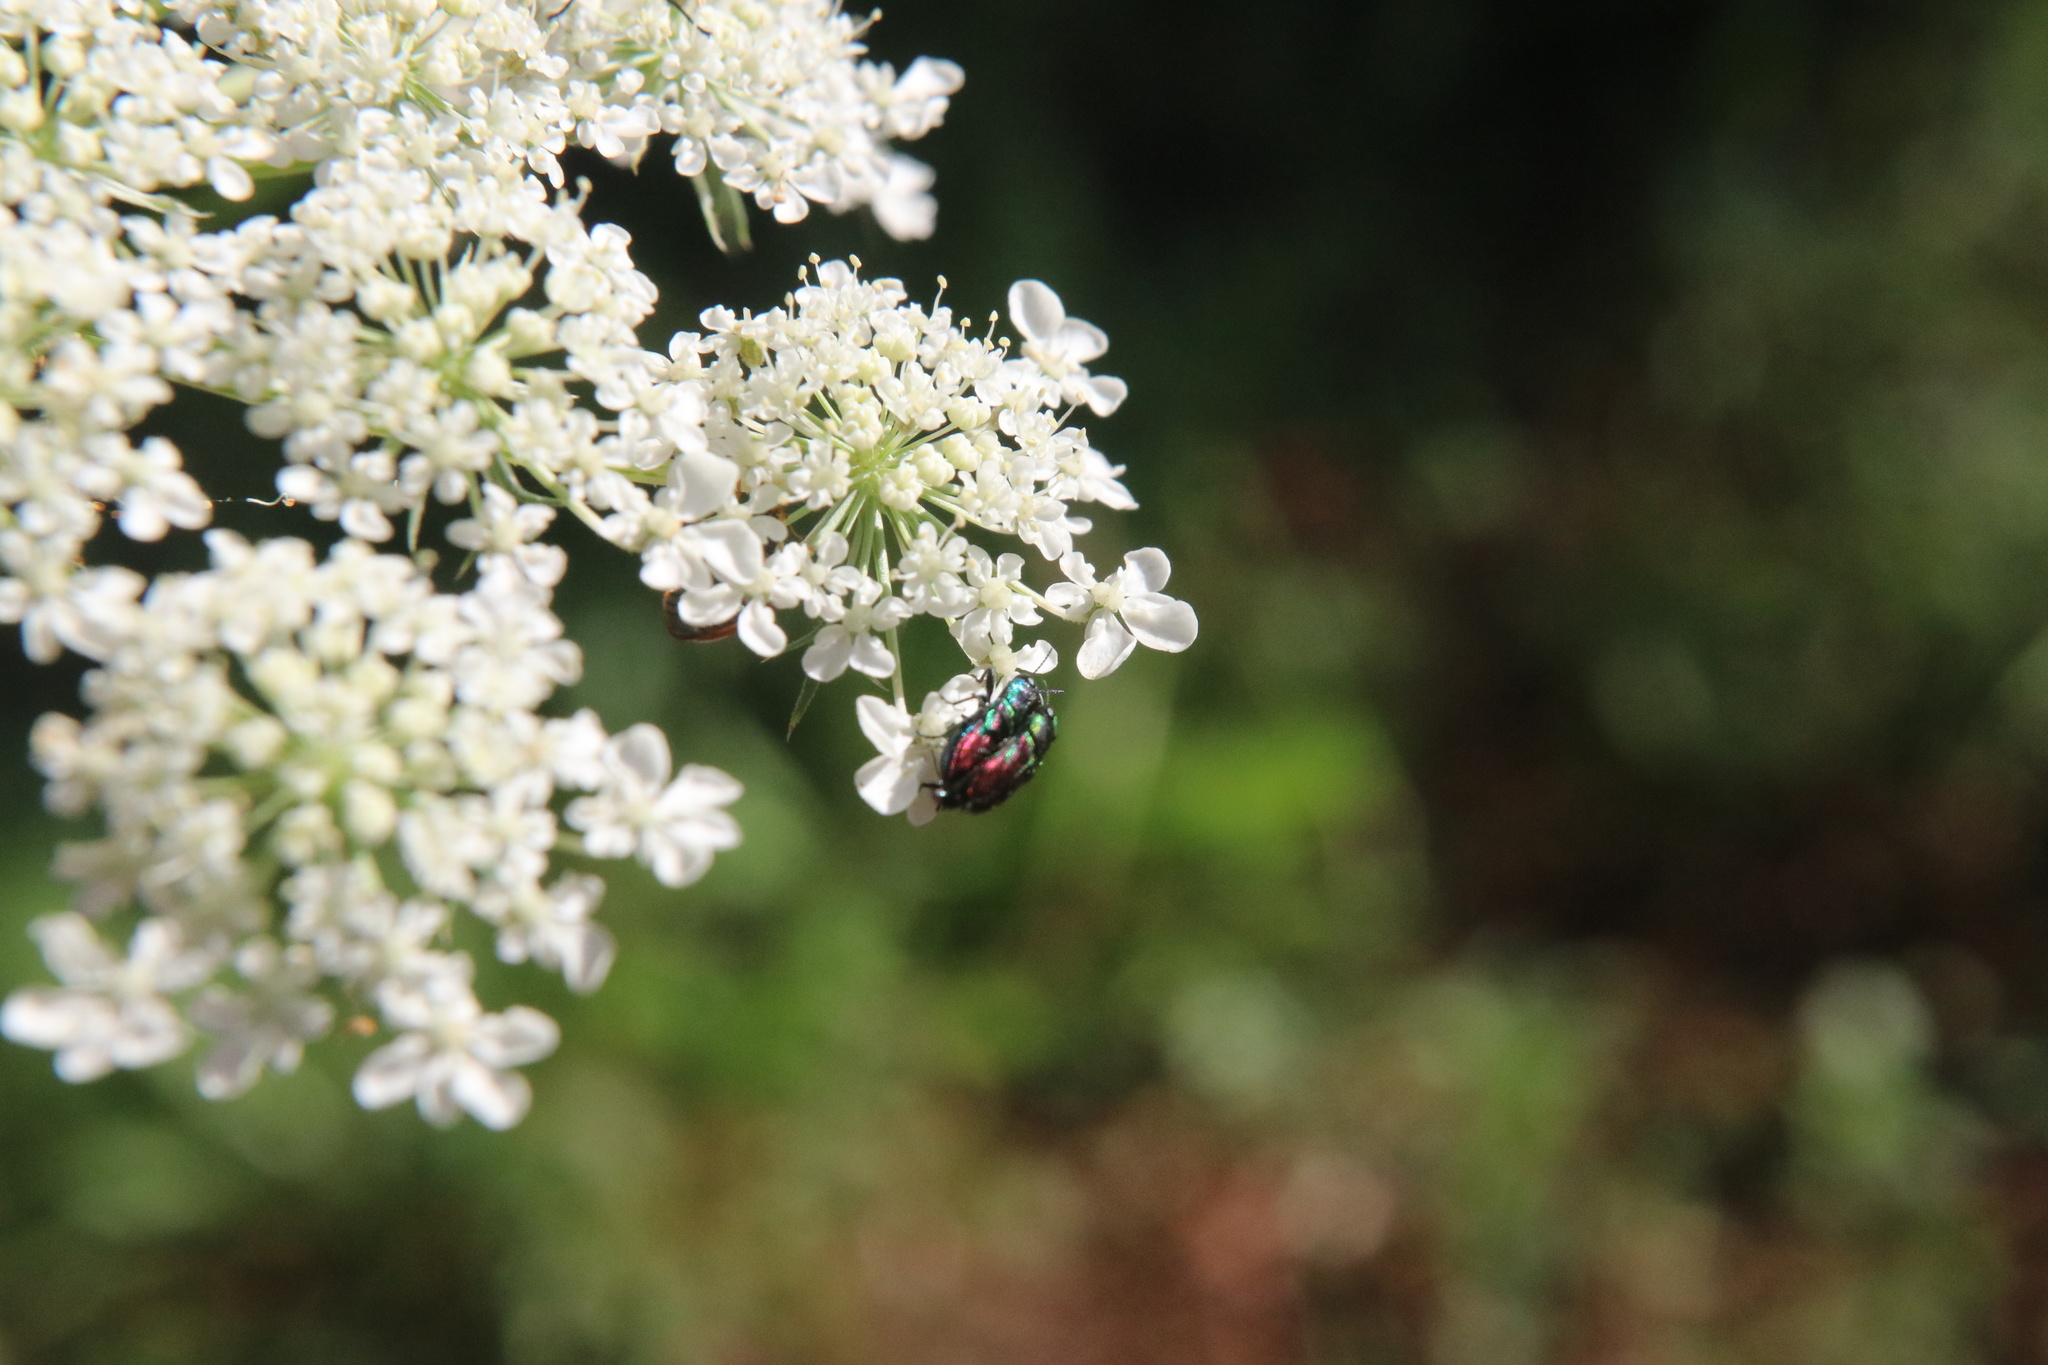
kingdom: Animalia
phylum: Arthropoda
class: Insecta
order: Coleoptera
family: Buprestidae
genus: Bilyaxia
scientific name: Bilyaxia concinna
